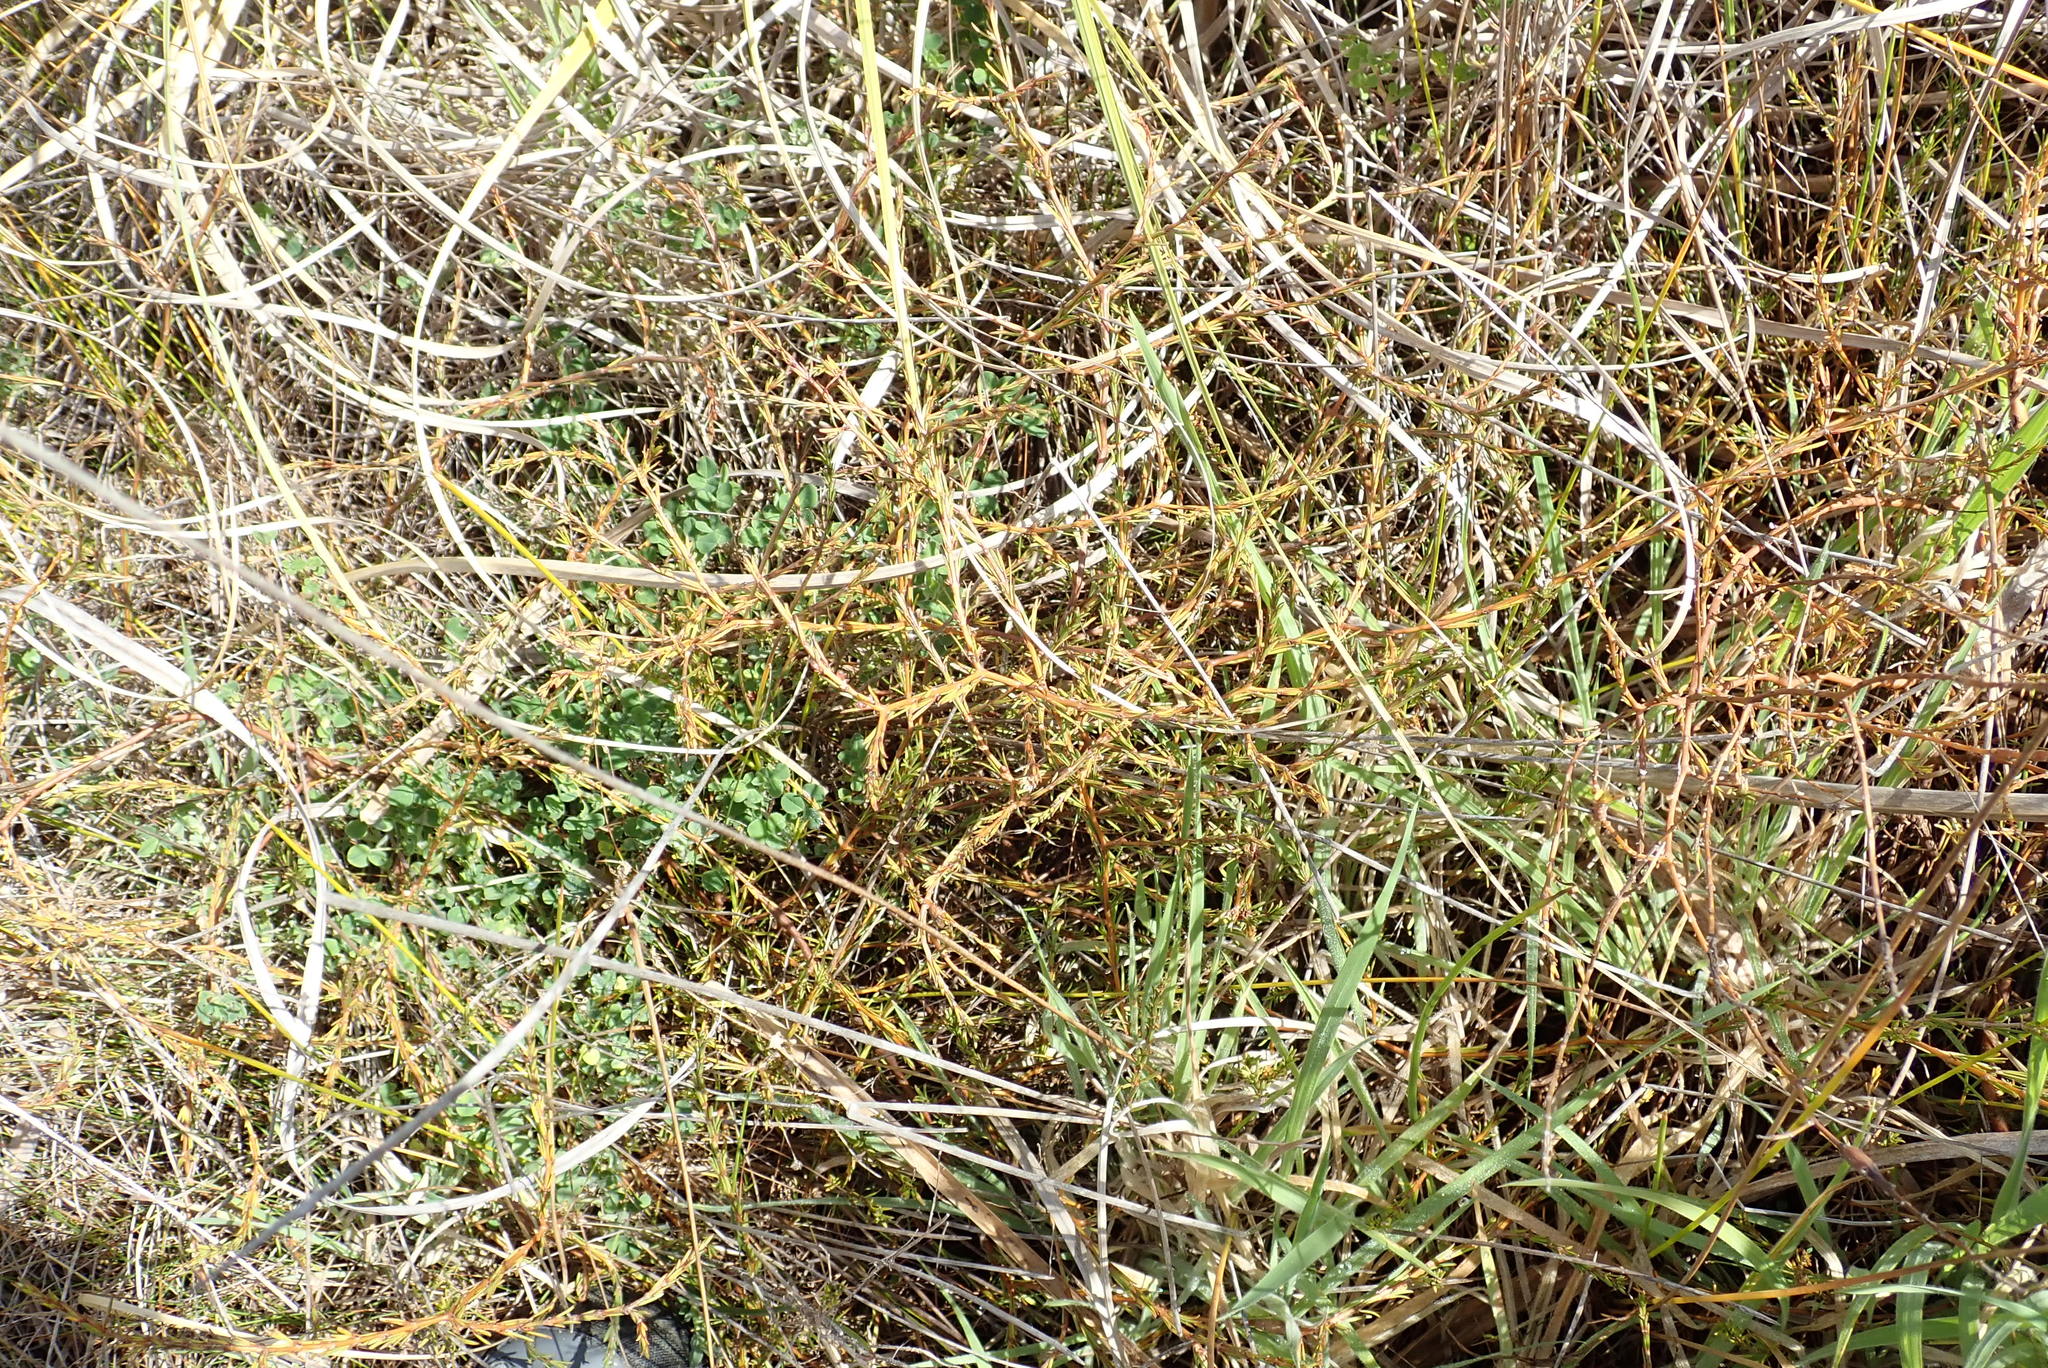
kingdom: Plantae
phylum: Tracheophyta
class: Magnoliopsida
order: Gentianales
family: Rubiaceae
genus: Coprosma
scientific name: Coprosma acerosa
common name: Sand coprosma
